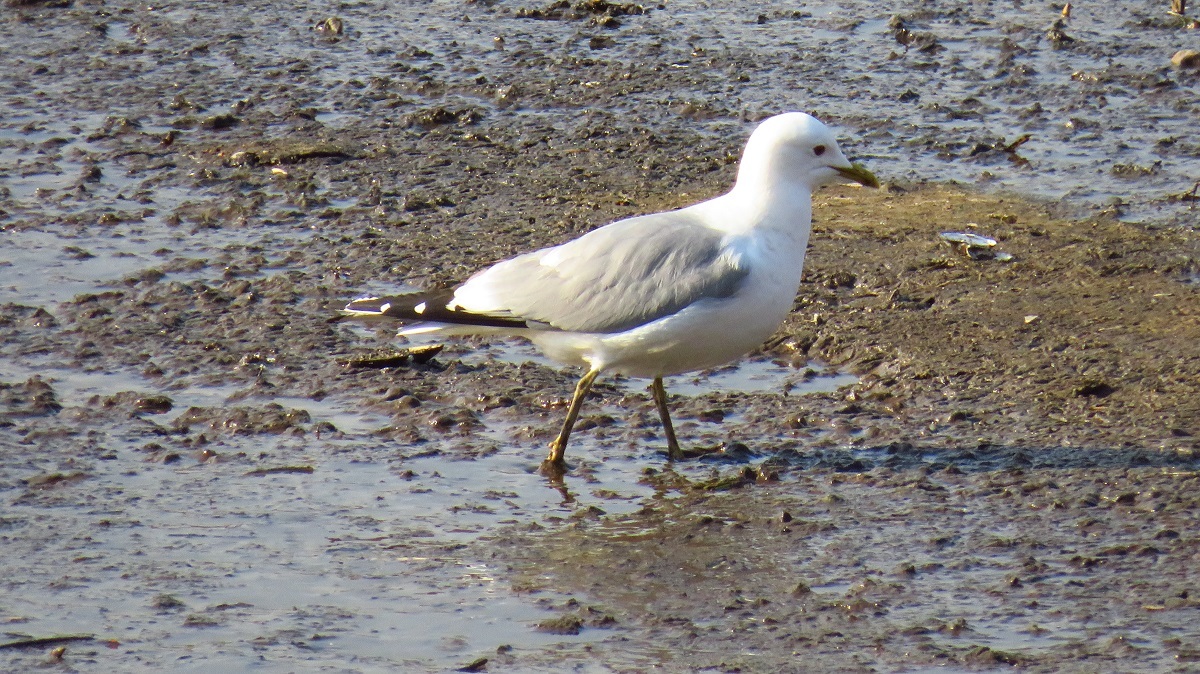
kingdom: Animalia
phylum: Chordata
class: Aves
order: Charadriiformes
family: Laridae
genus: Larus
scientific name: Larus canus
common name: Mew gull
